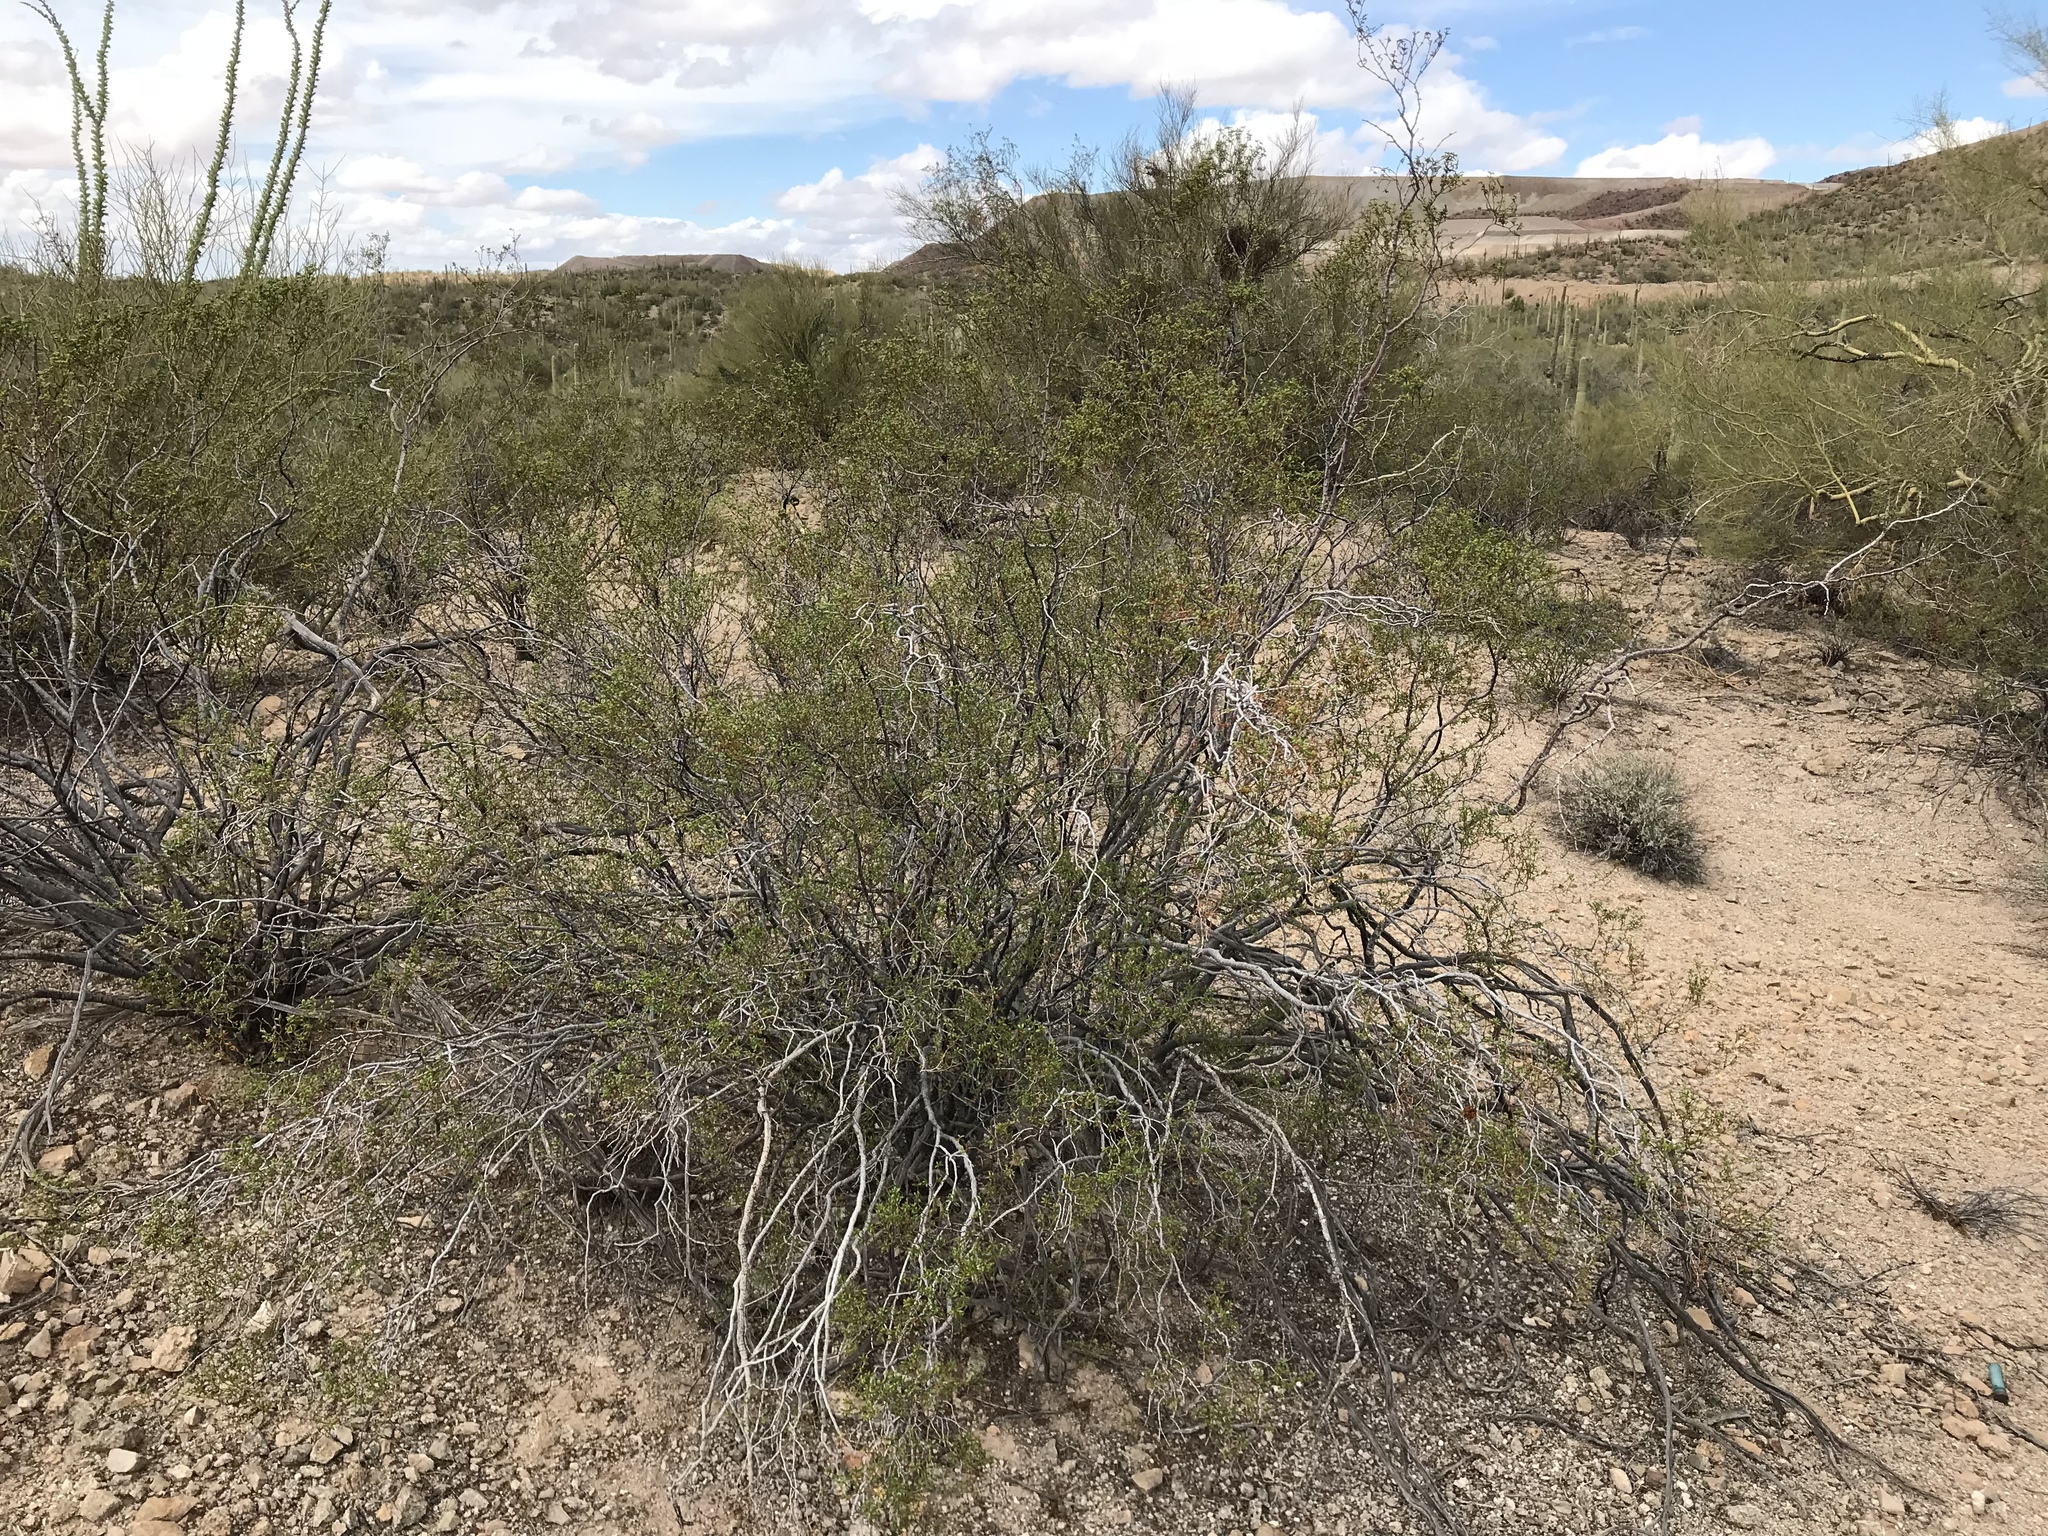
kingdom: Plantae
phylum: Tracheophyta
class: Magnoliopsida
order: Zygophyllales
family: Zygophyllaceae
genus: Larrea
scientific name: Larrea tridentata
